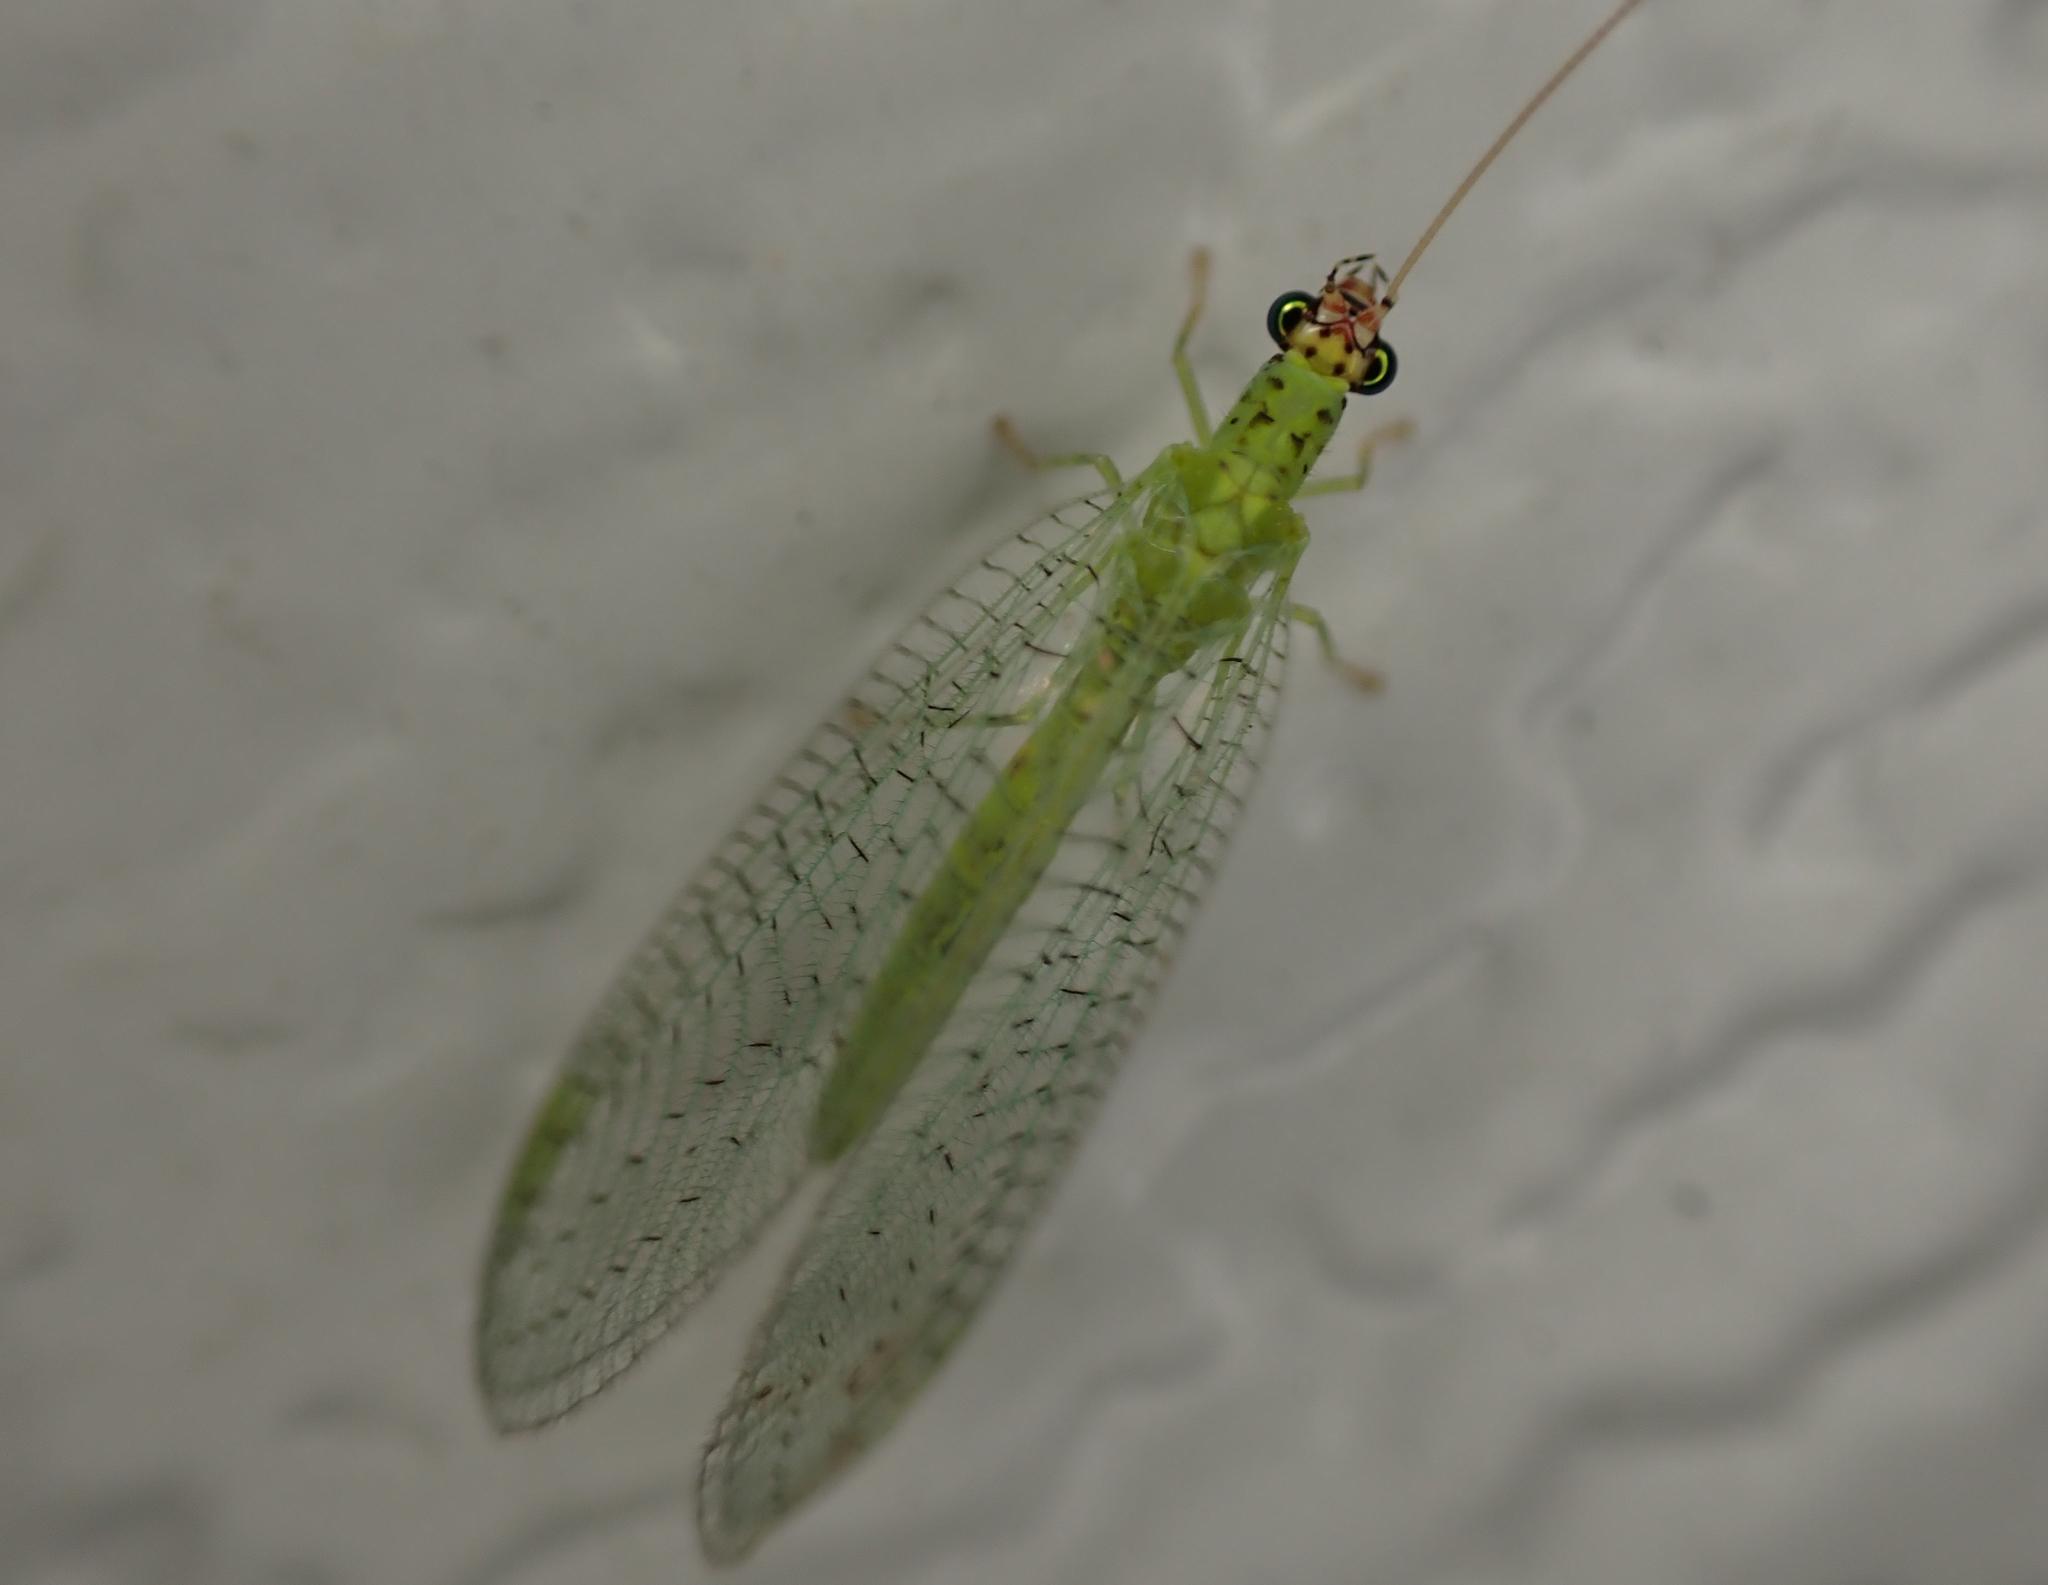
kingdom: Animalia
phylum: Arthropoda
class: Insecta
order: Neuroptera
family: Chrysopidae
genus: Chrysopa
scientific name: Chrysopa oculata
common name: Golden-eyed lacewing
